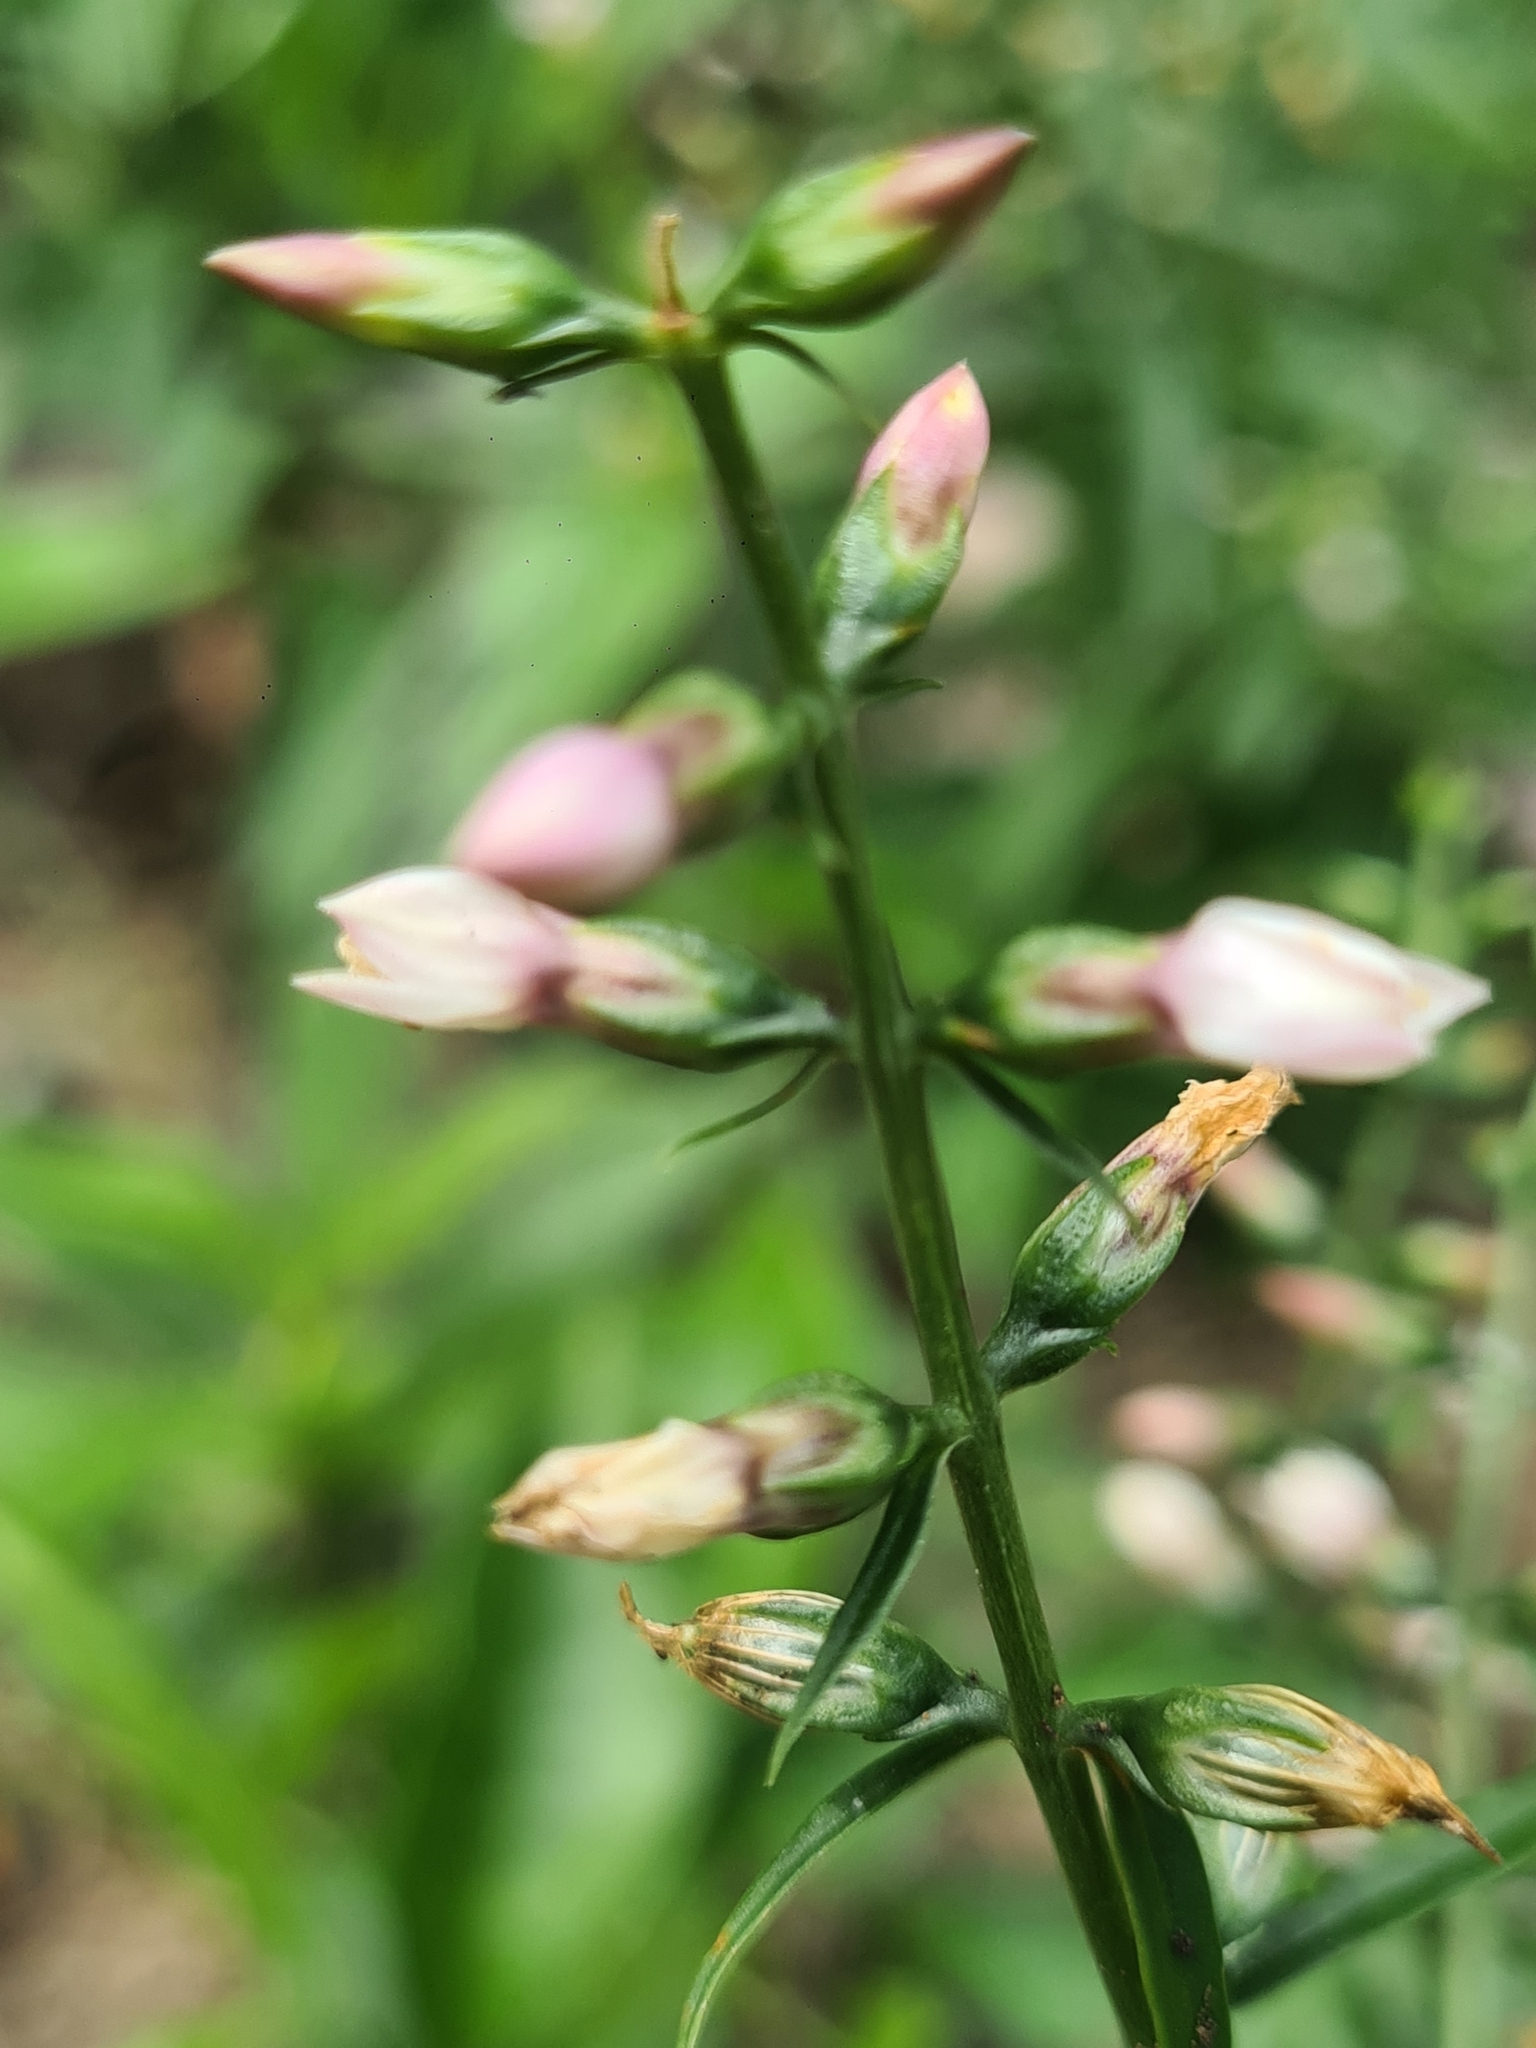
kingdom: Plantae
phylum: Tracheophyta
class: Magnoliopsida
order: Gentianales
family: Gentianaceae
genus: Coutoubea
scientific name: Coutoubea ramosa
